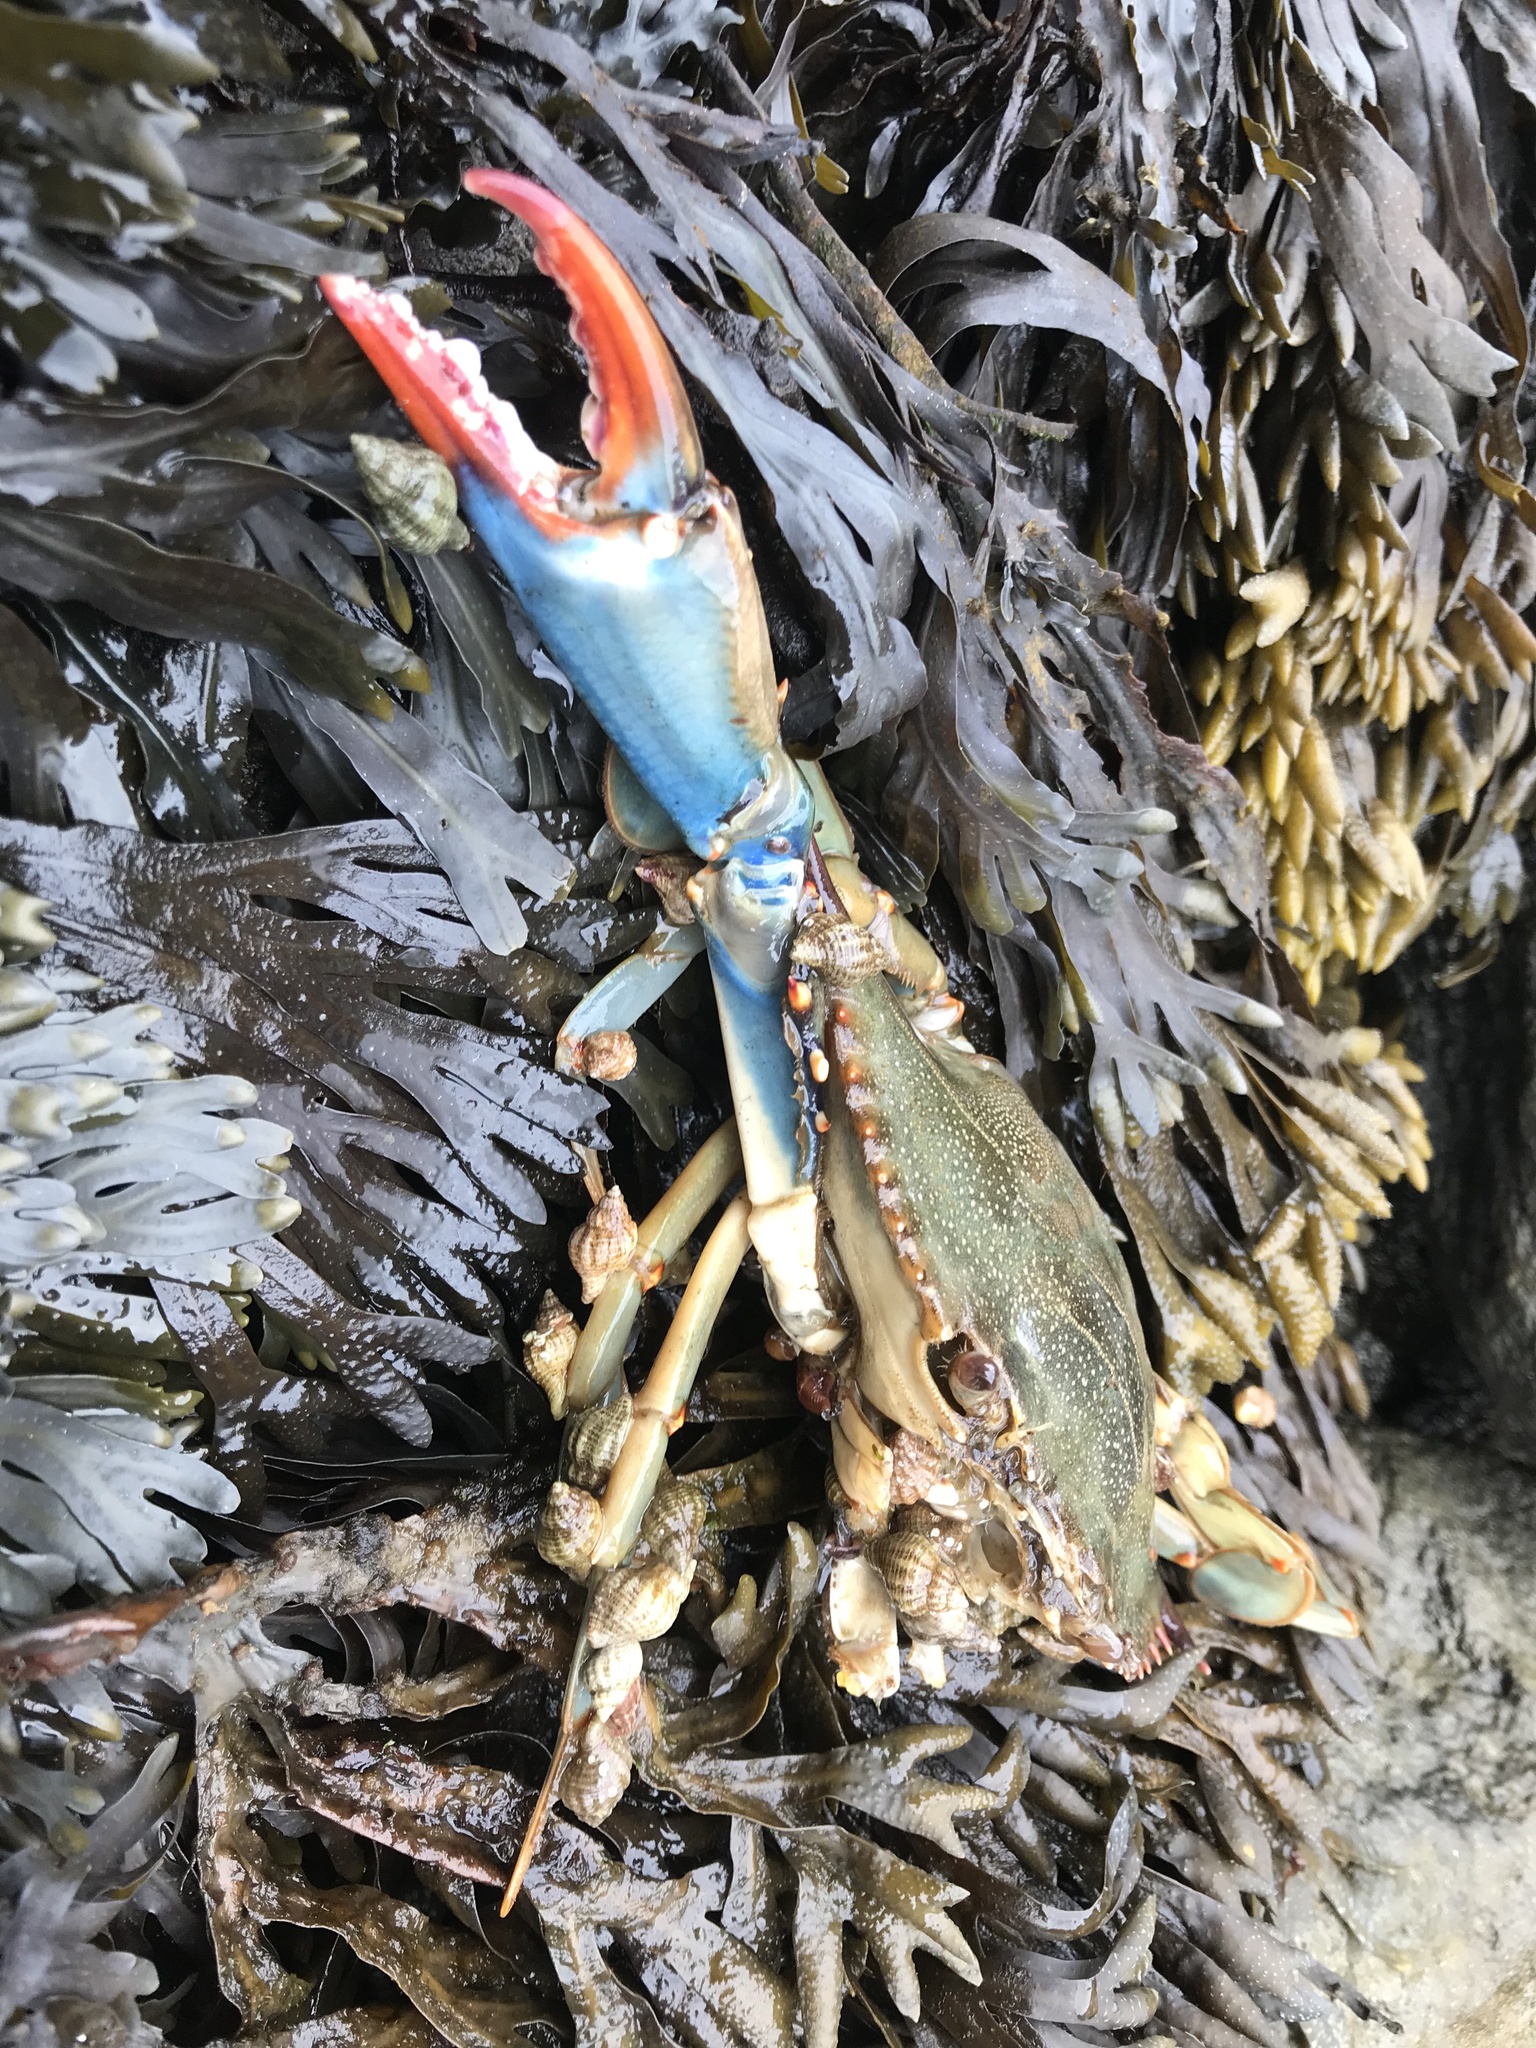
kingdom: Animalia
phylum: Arthropoda
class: Malacostraca
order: Decapoda
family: Portunidae
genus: Callinectes
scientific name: Callinectes sapidus
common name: Blue crab
